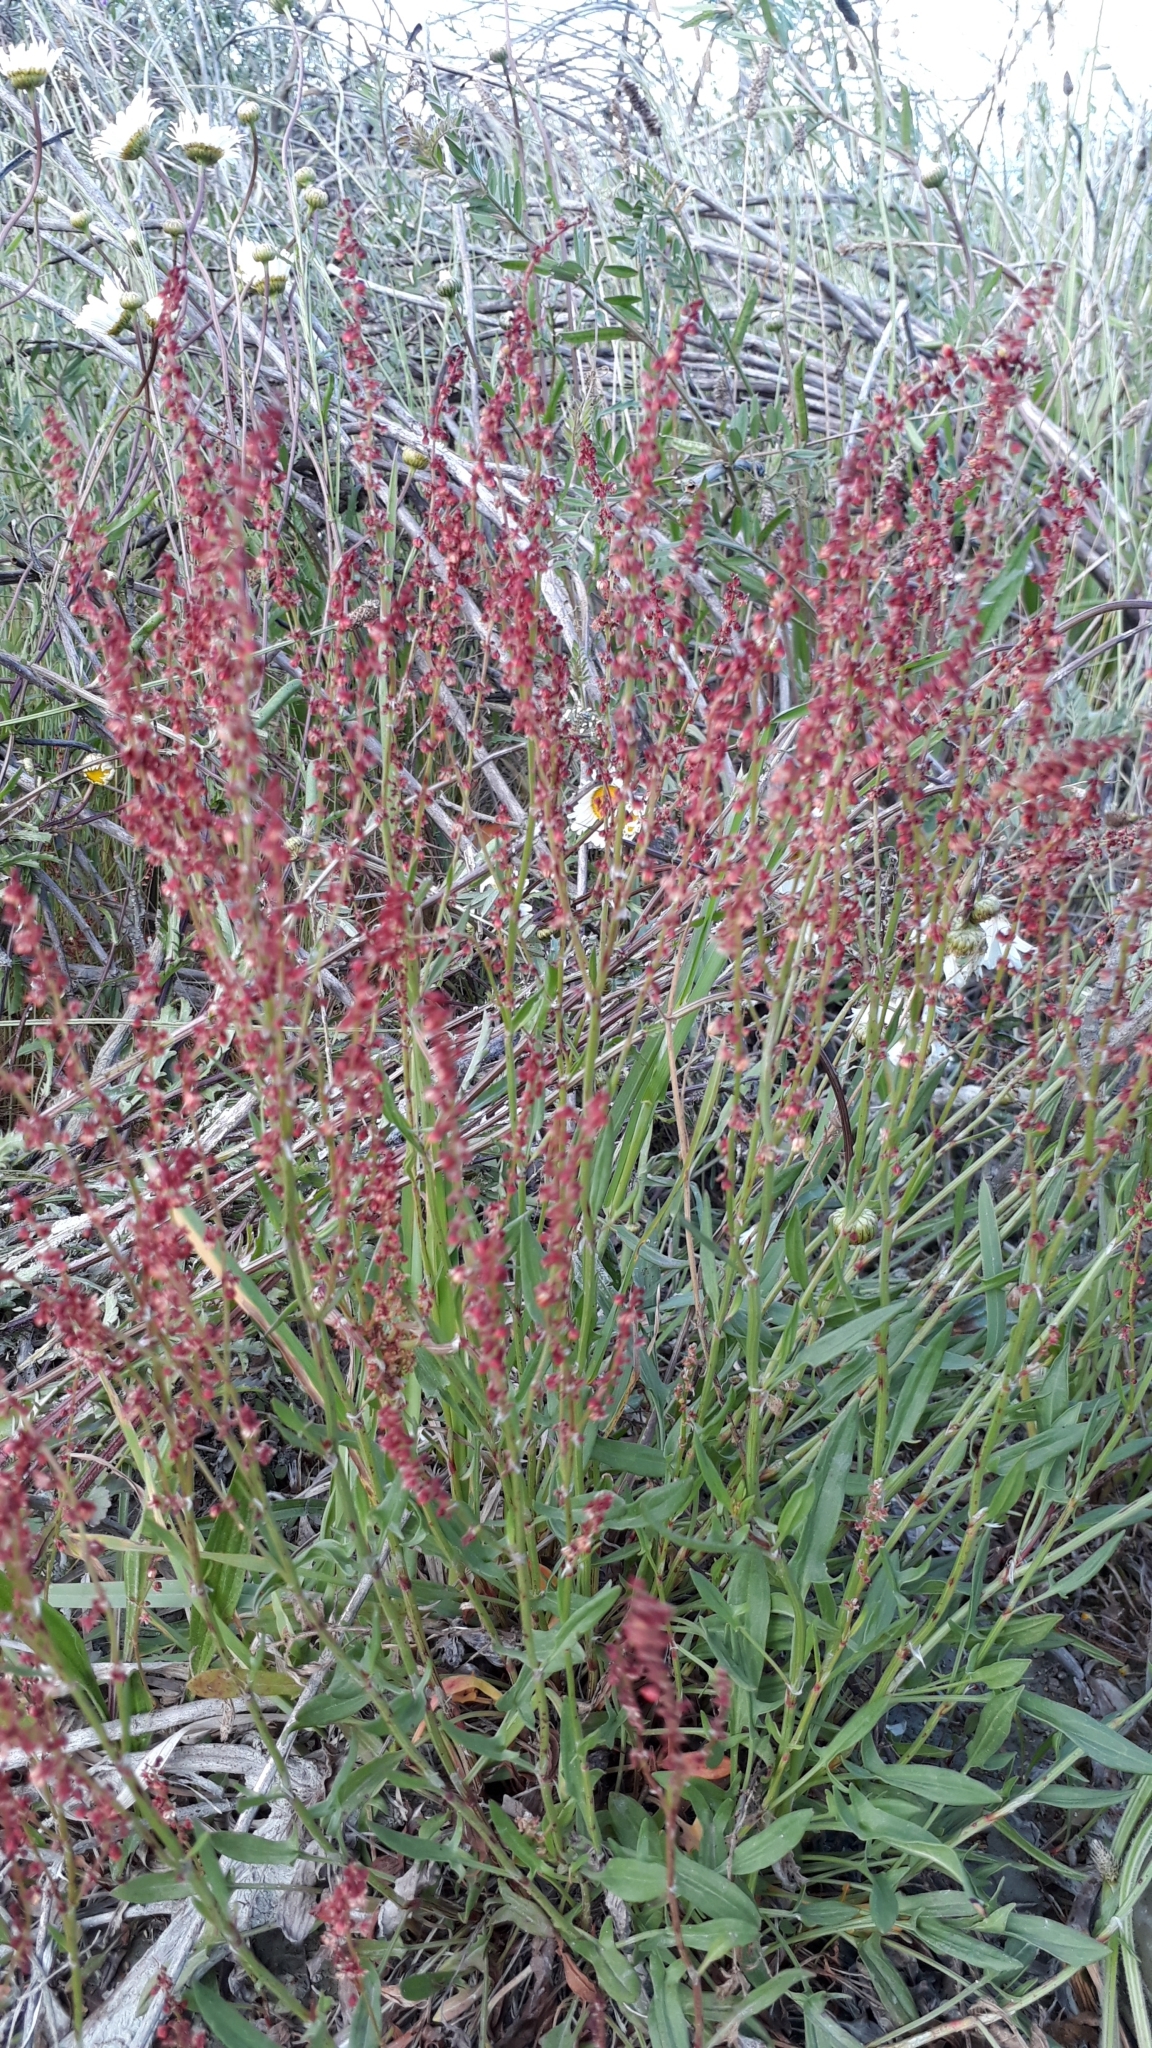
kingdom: Plantae
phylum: Tracheophyta
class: Magnoliopsida
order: Caryophyllales
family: Polygonaceae
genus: Rumex
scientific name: Rumex acetosella
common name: Common sheep sorrel
